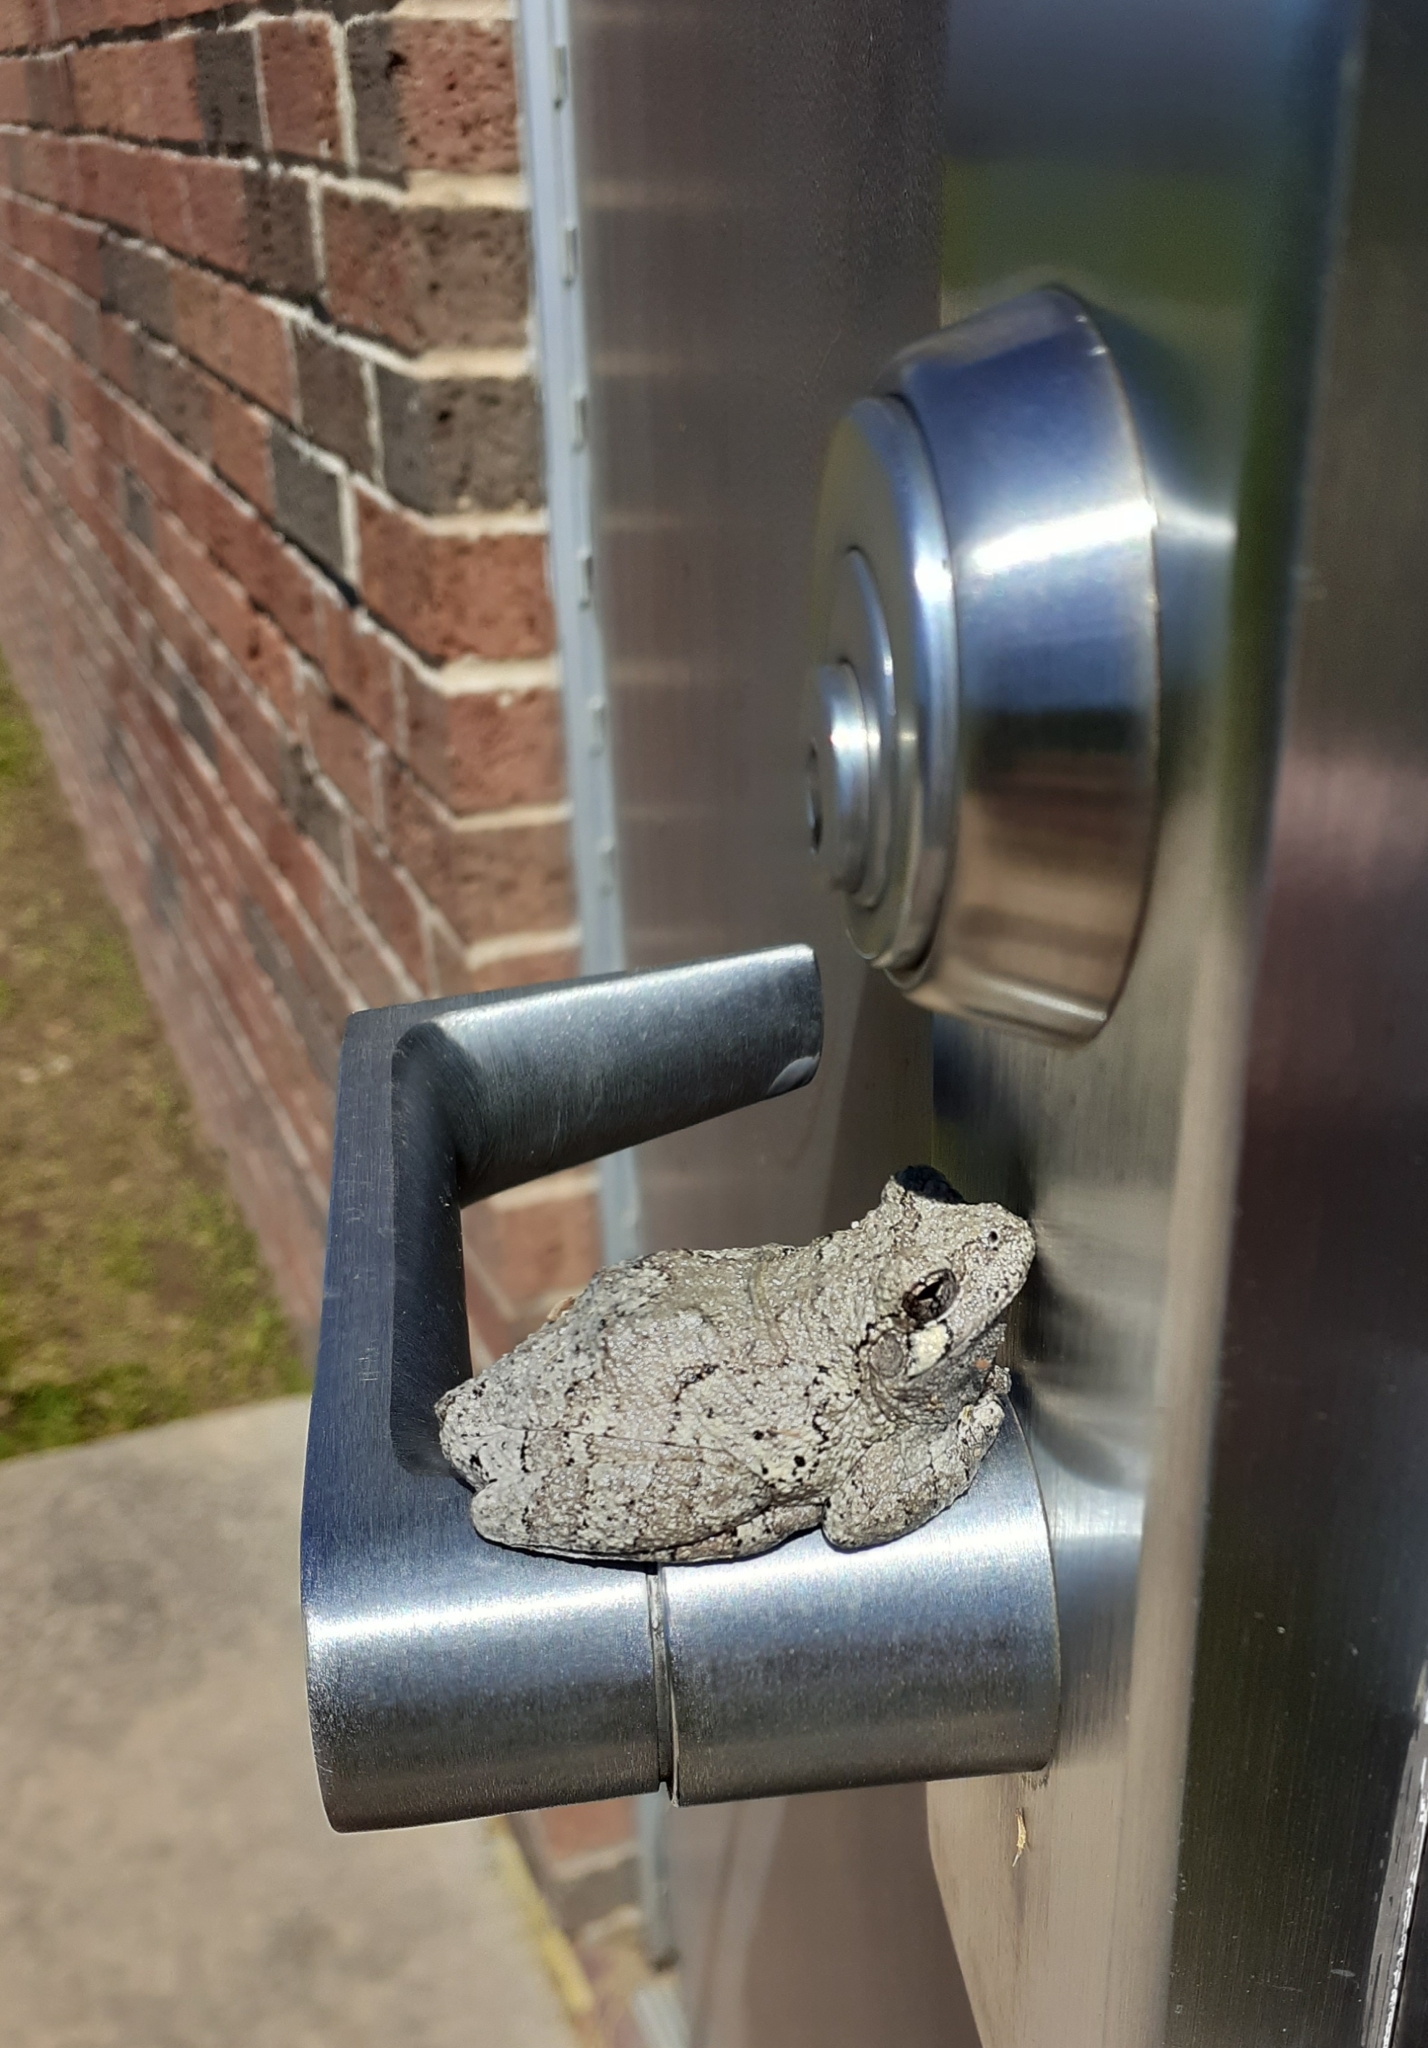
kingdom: Animalia
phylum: Chordata
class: Amphibia
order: Anura
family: Hylidae
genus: Hyla
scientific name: Hyla
